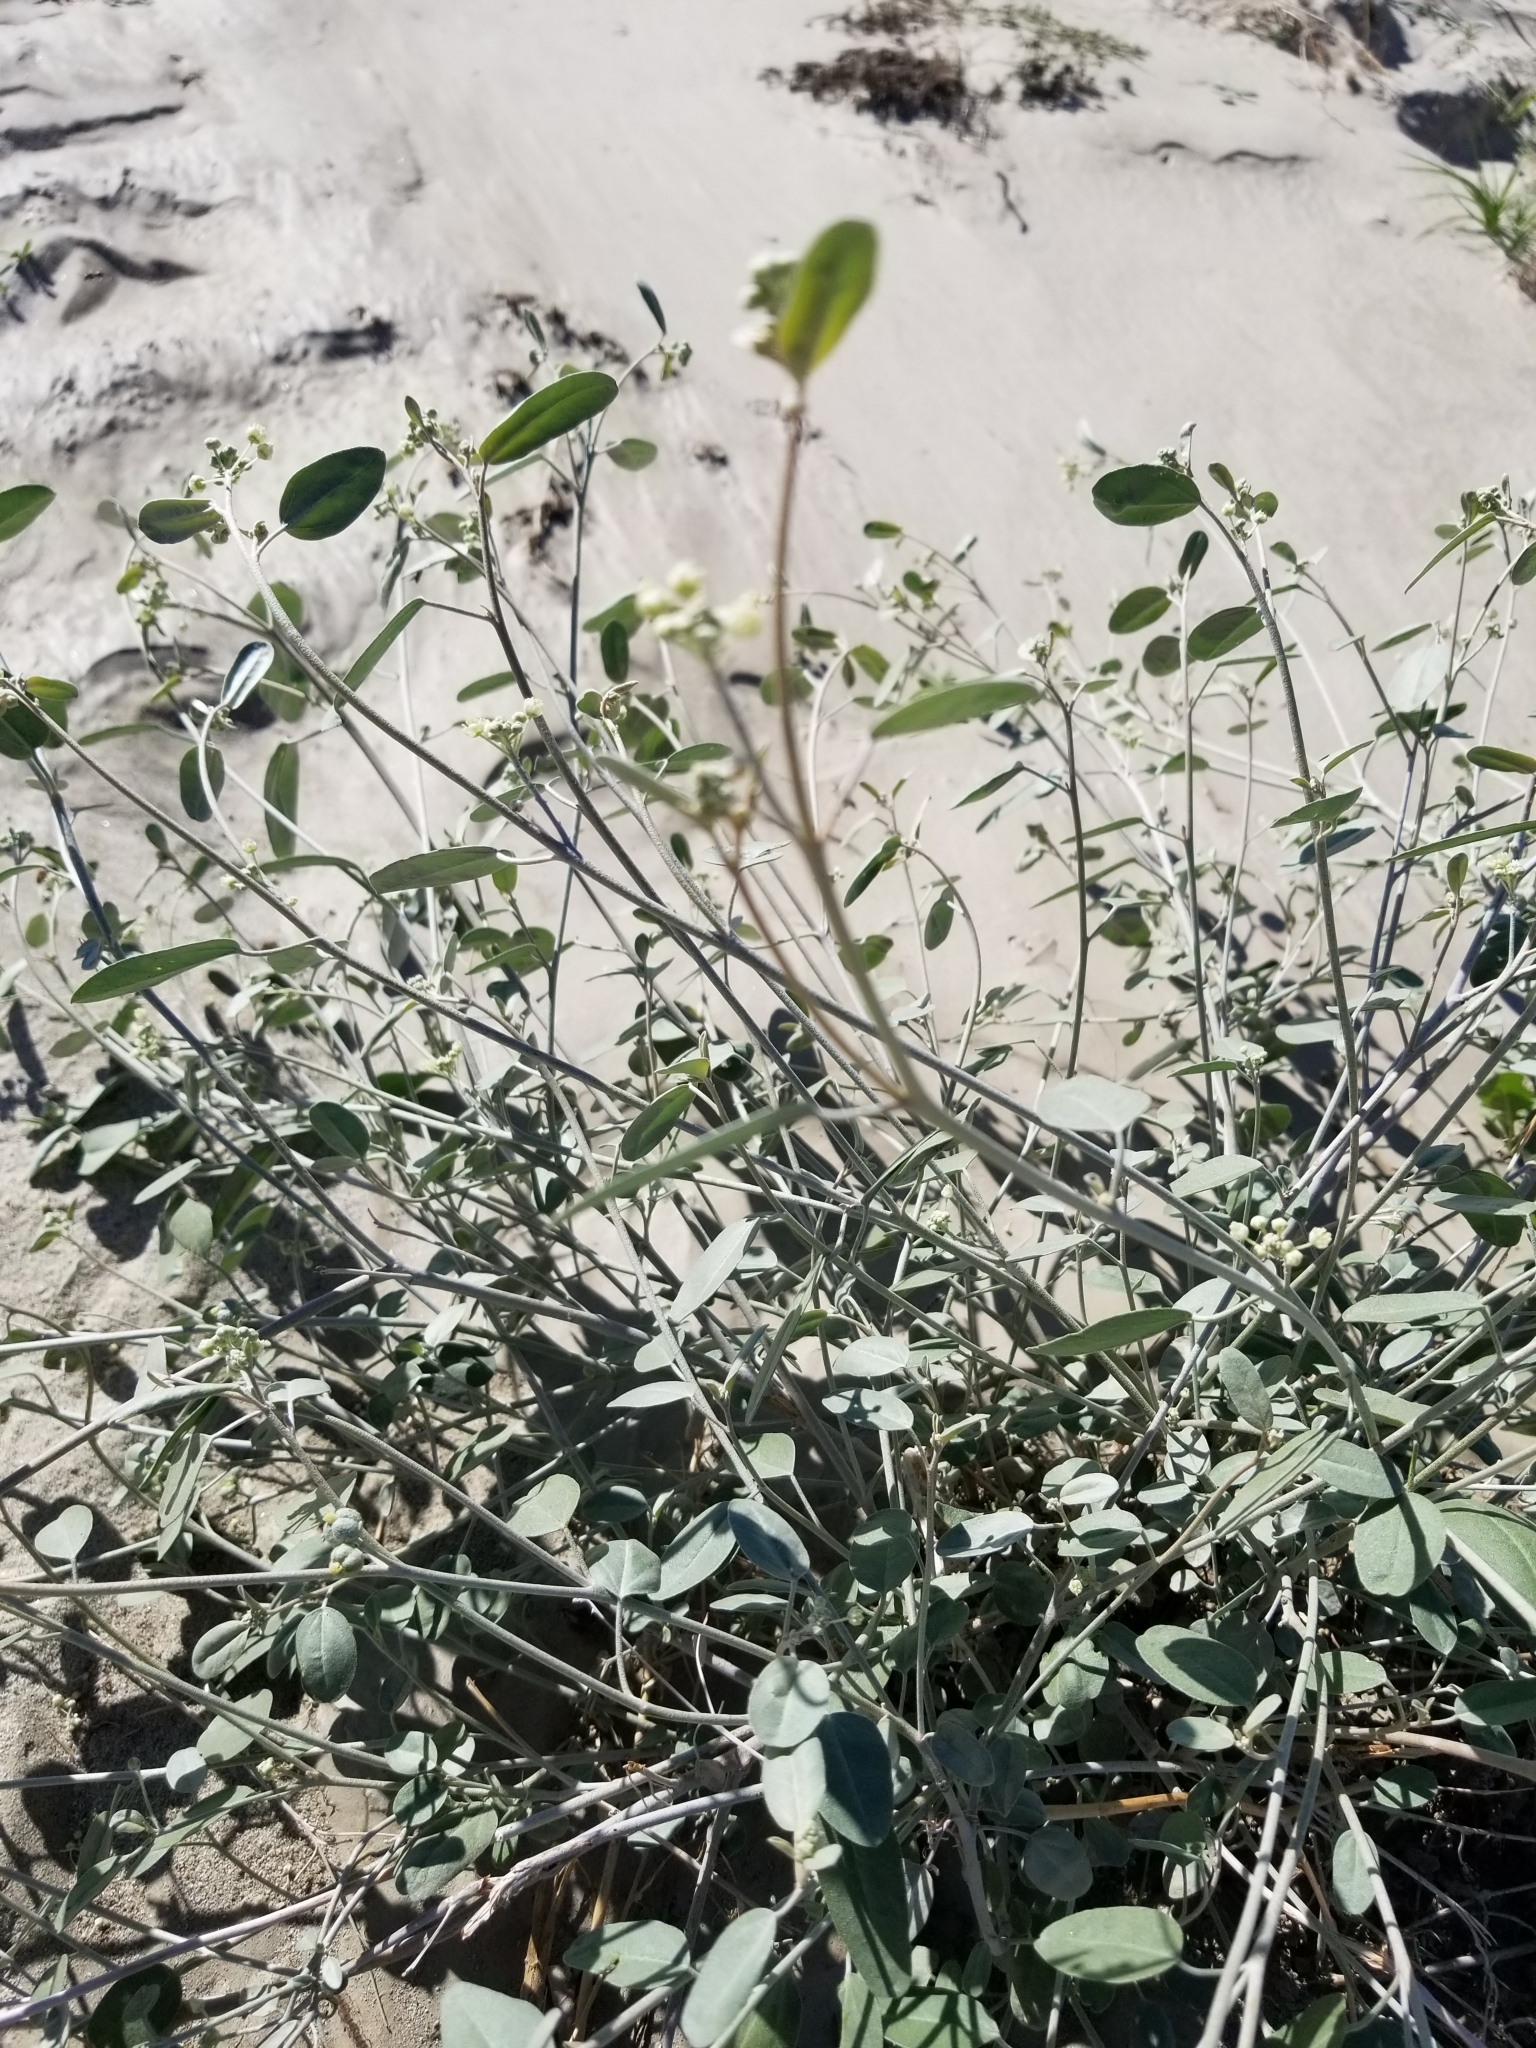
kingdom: Plantae
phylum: Tracheophyta
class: Magnoliopsida
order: Malpighiales
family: Euphorbiaceae
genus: Croton
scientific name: Croton californicus
